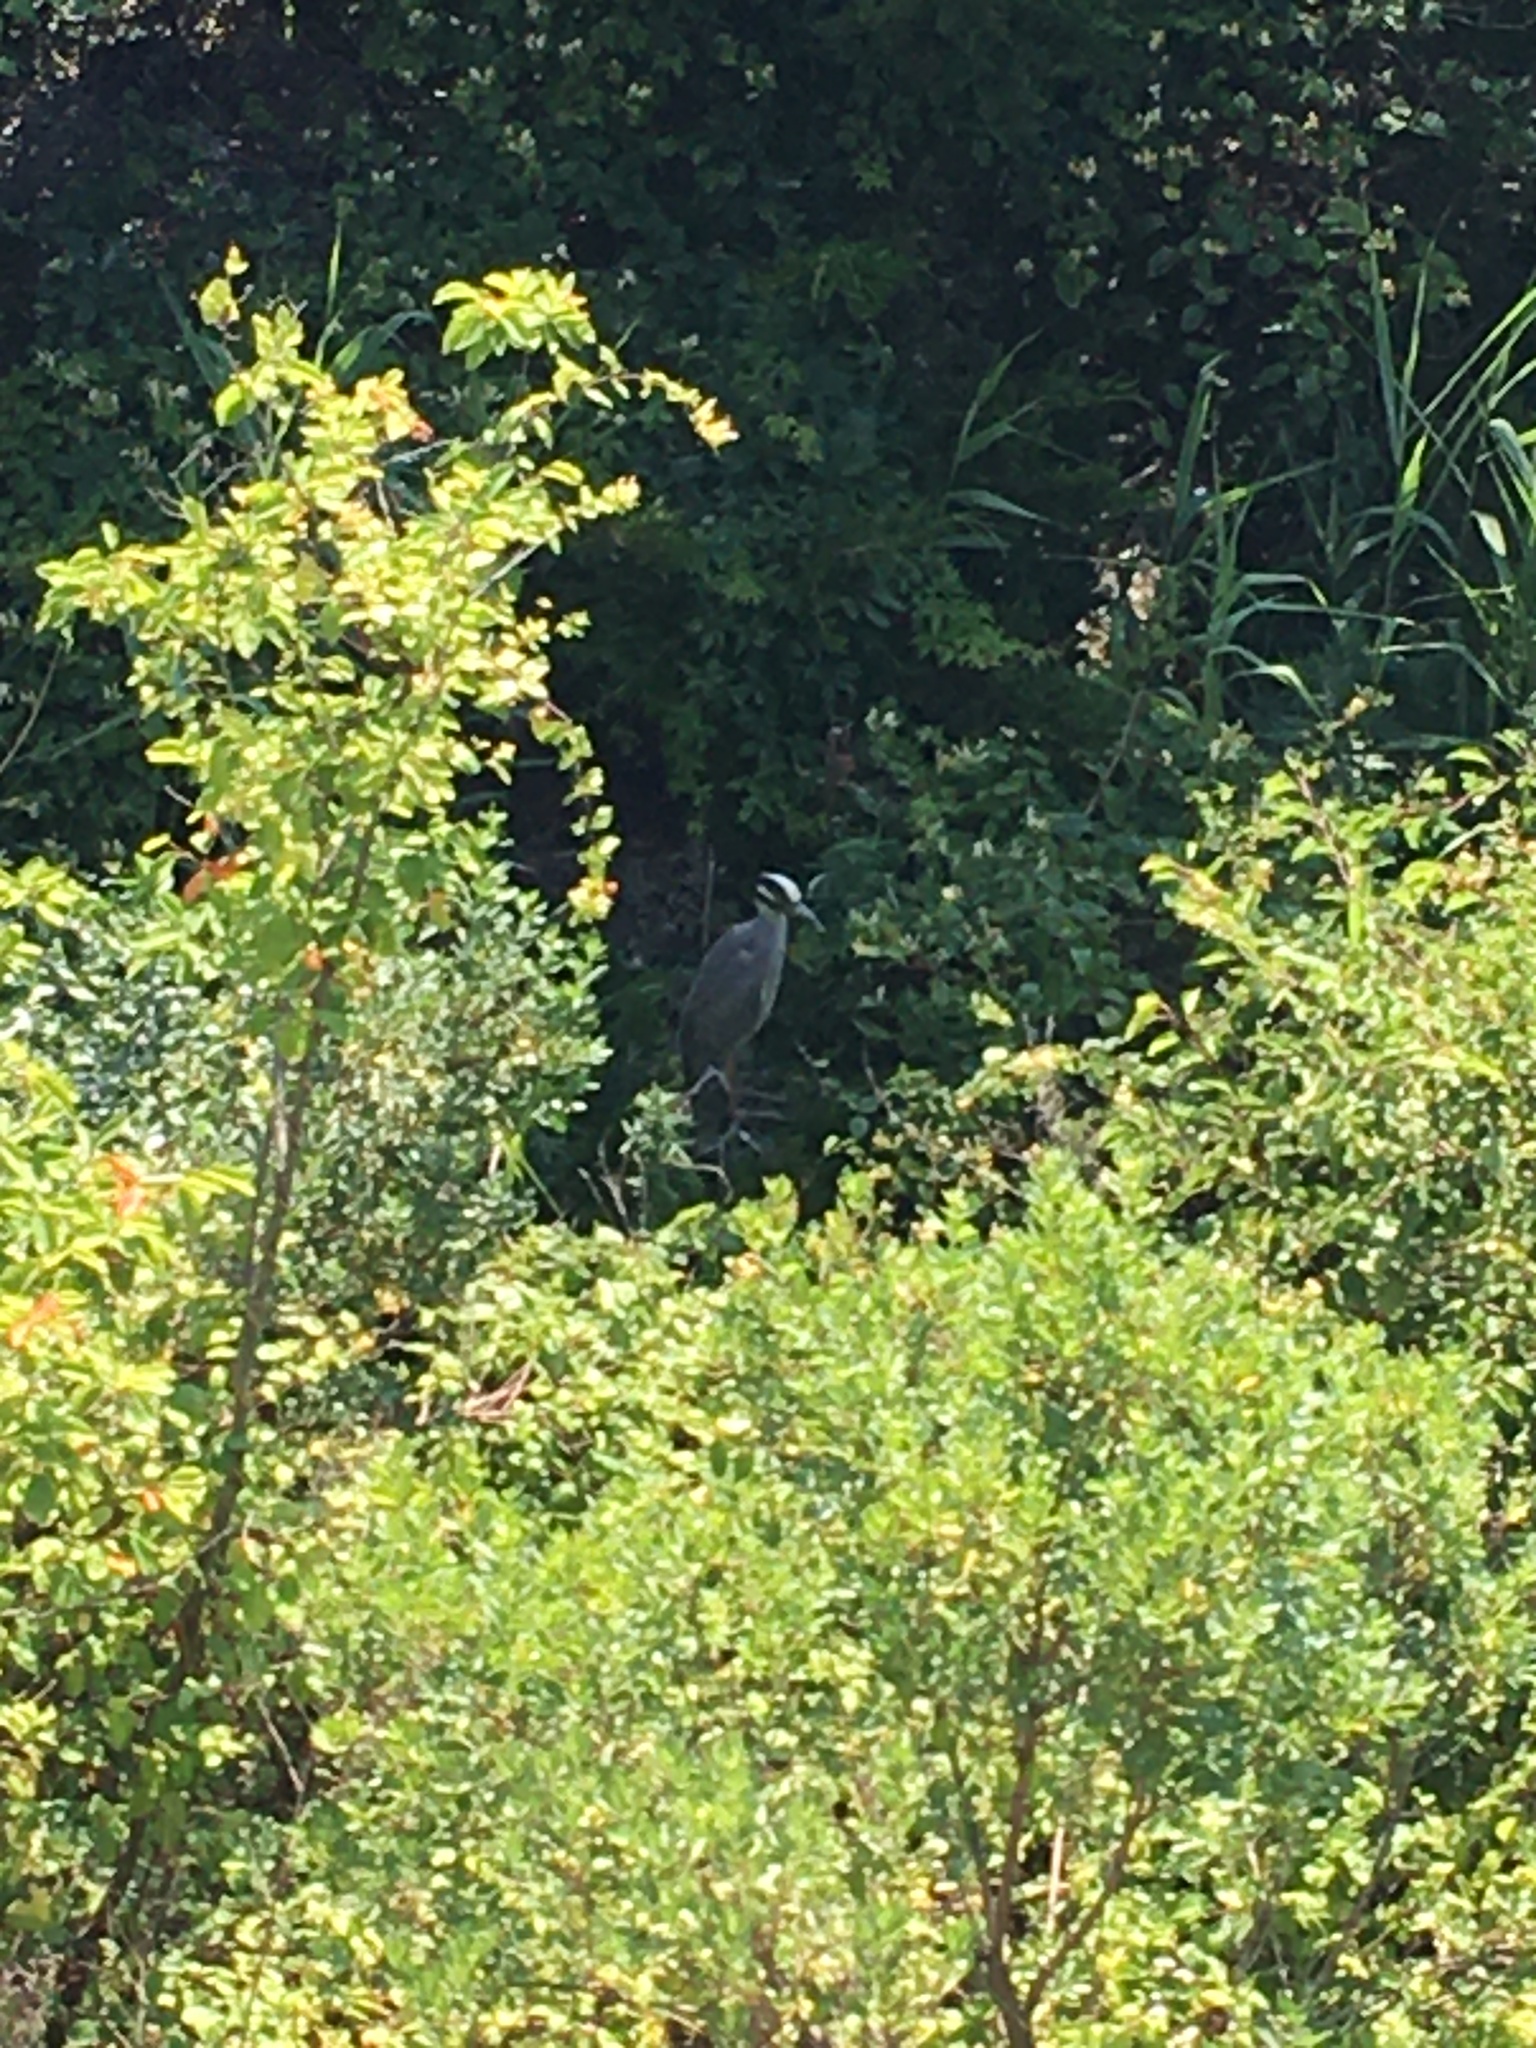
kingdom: Animalia
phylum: Chordata
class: Aves
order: Pelecaniformes
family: Ardeidae
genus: Nyctanassa
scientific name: Nyctanassa violacea
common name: Yellow-crowned night heron
